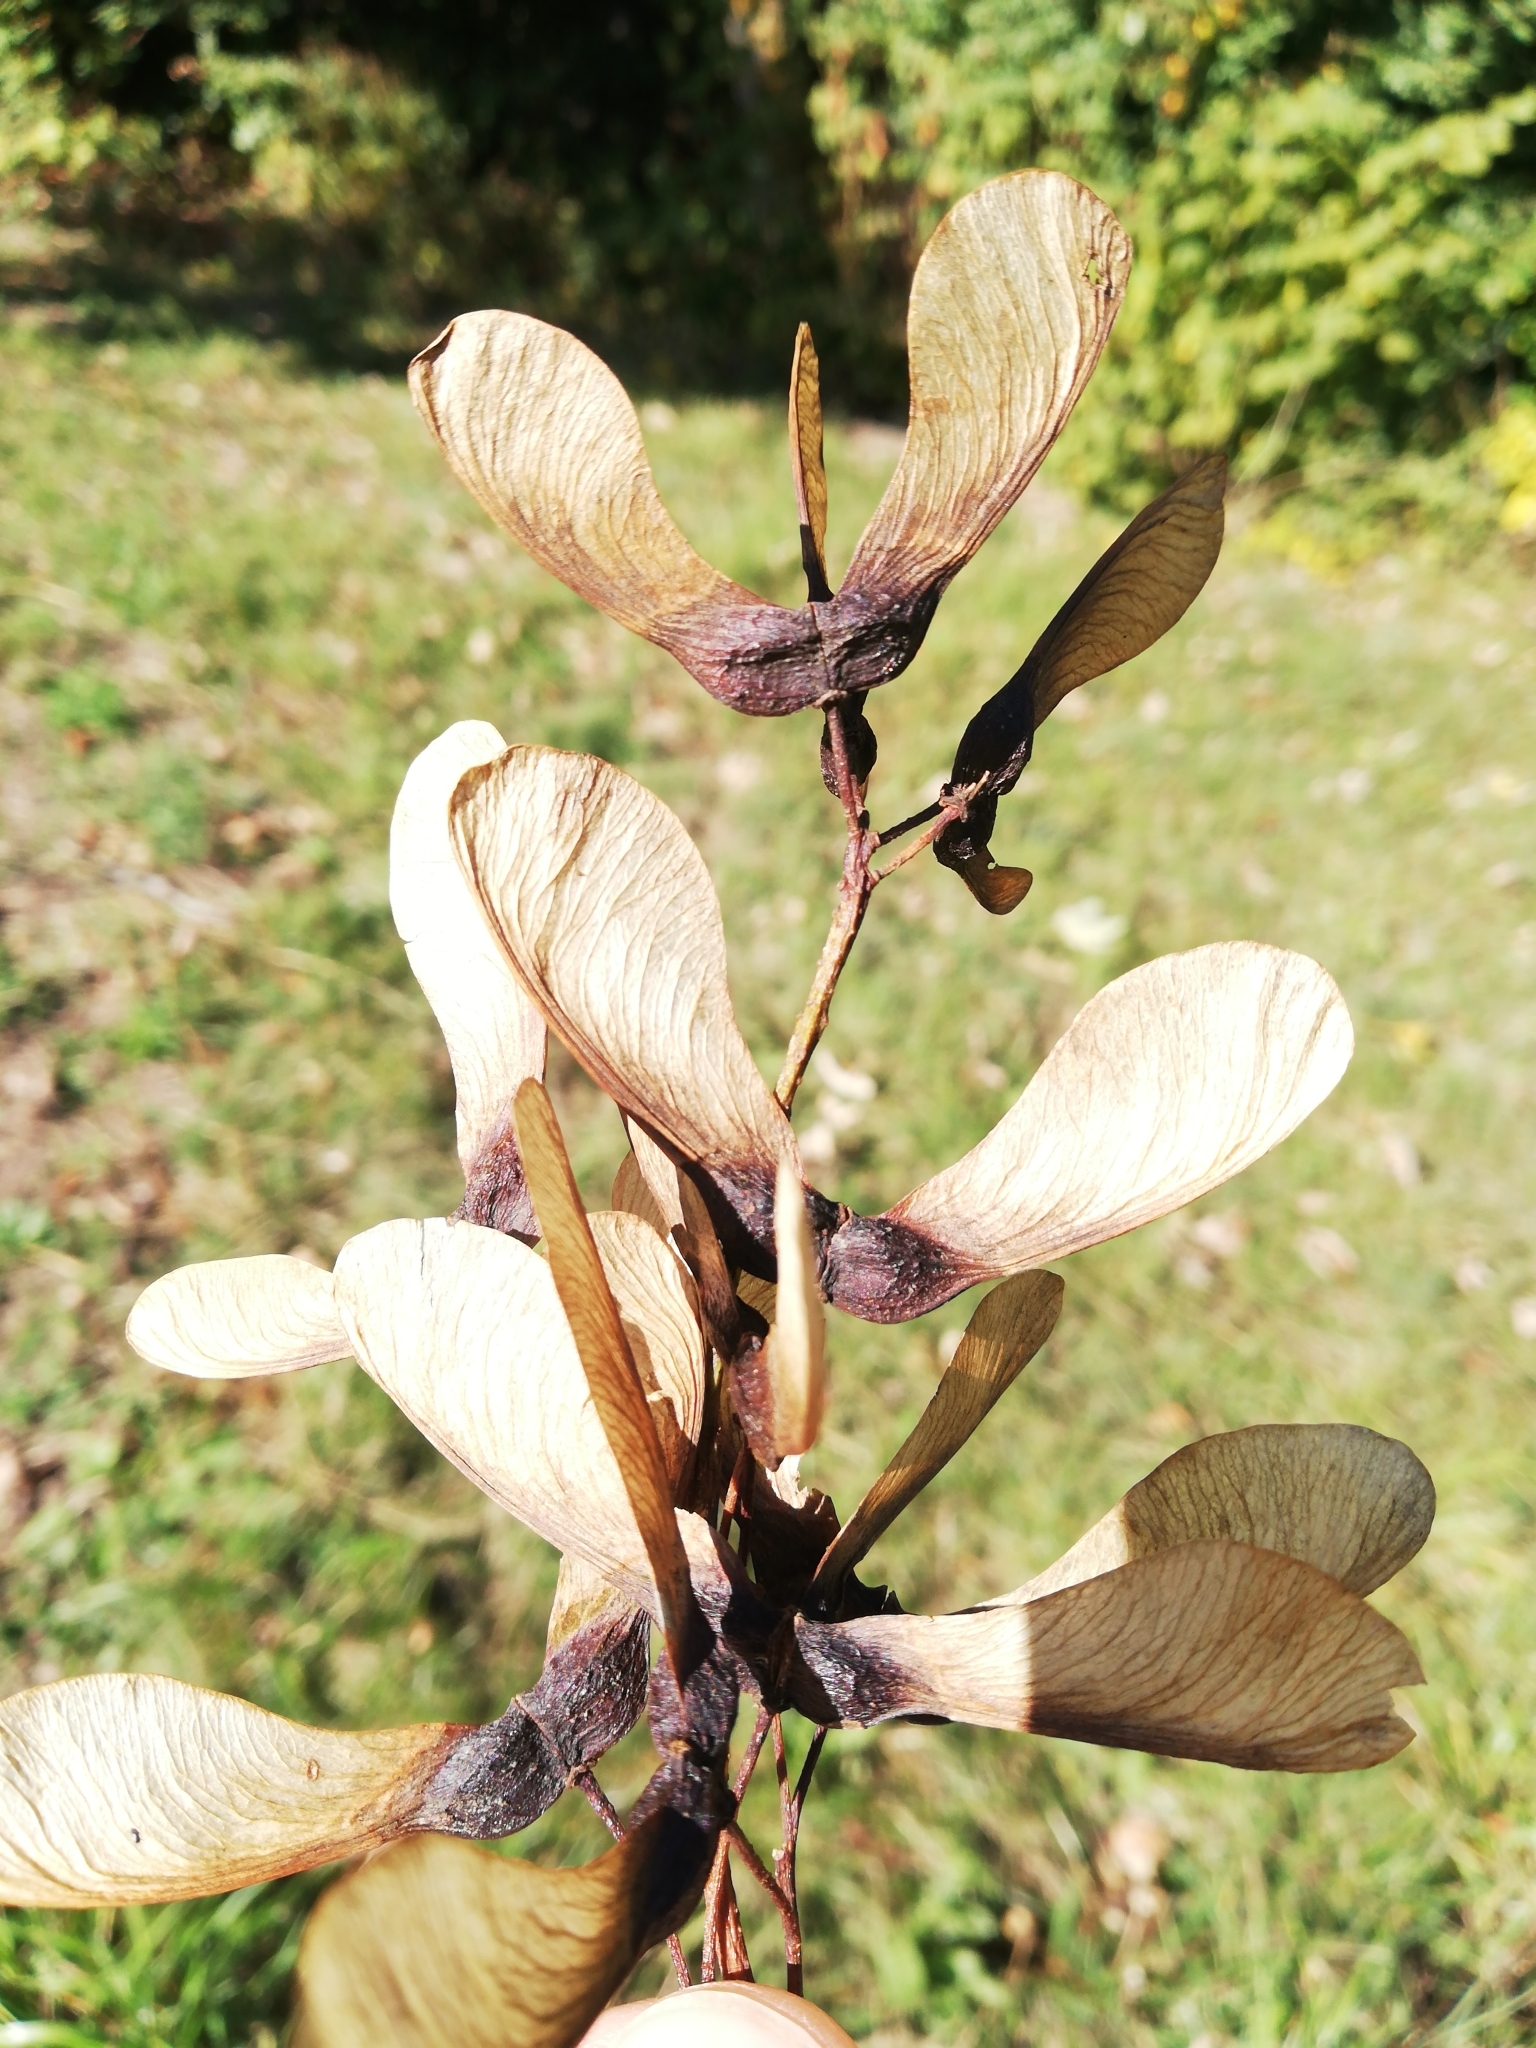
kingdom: Plantae
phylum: Tracheophyta
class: Magnoliopsida
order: Sapindales
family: Sapindaceae
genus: Acer
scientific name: Acer pseudoplatanus
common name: Sycamore
